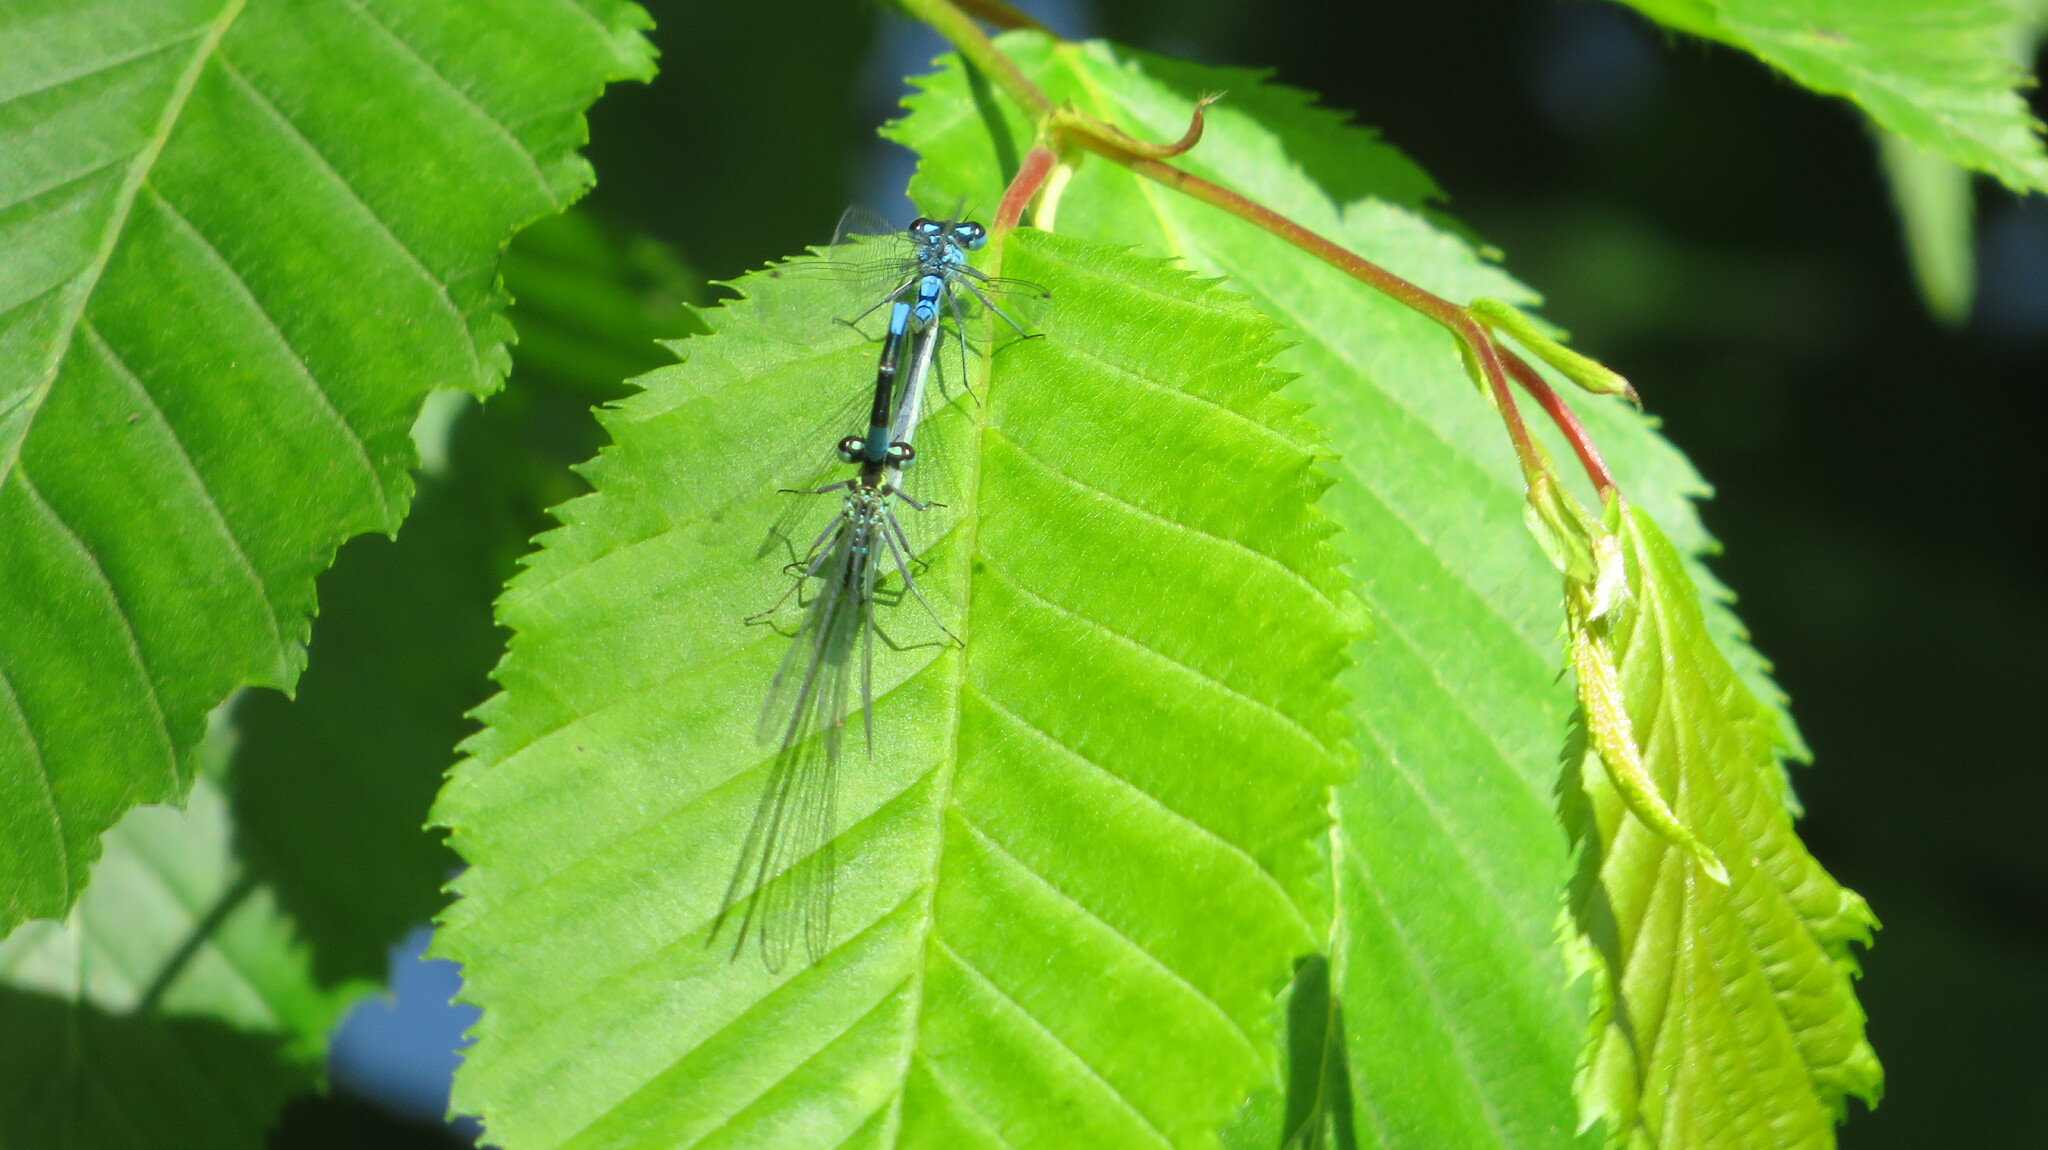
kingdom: Animalia
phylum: Arthropoda
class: Insecta
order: Odonata
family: Coenagrionidae
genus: Coenagrion
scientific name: Coenagrion puella
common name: Azure damselfly
